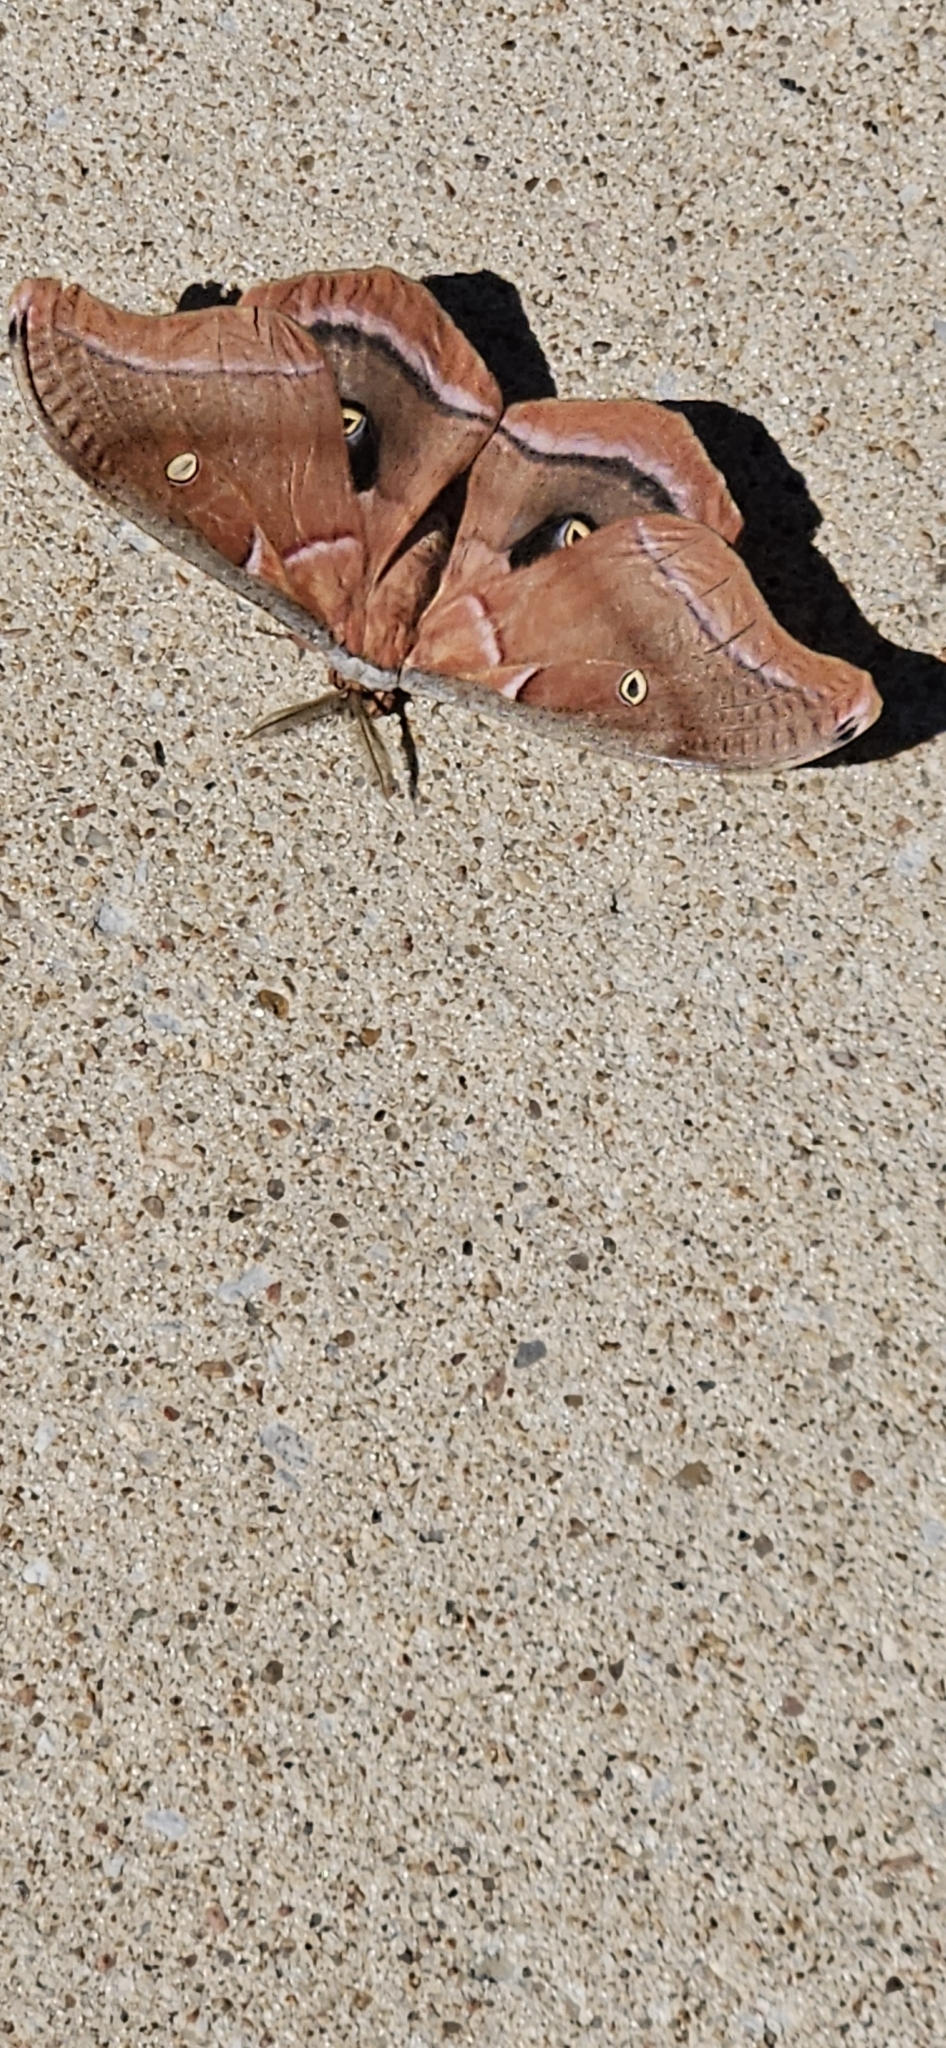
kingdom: Animalia
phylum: Arthropoda
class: Insecta
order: Lepidoptera
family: Saturniidae
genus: Antheraea
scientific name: Antheraea polyphemus
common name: Polyphemus moth
